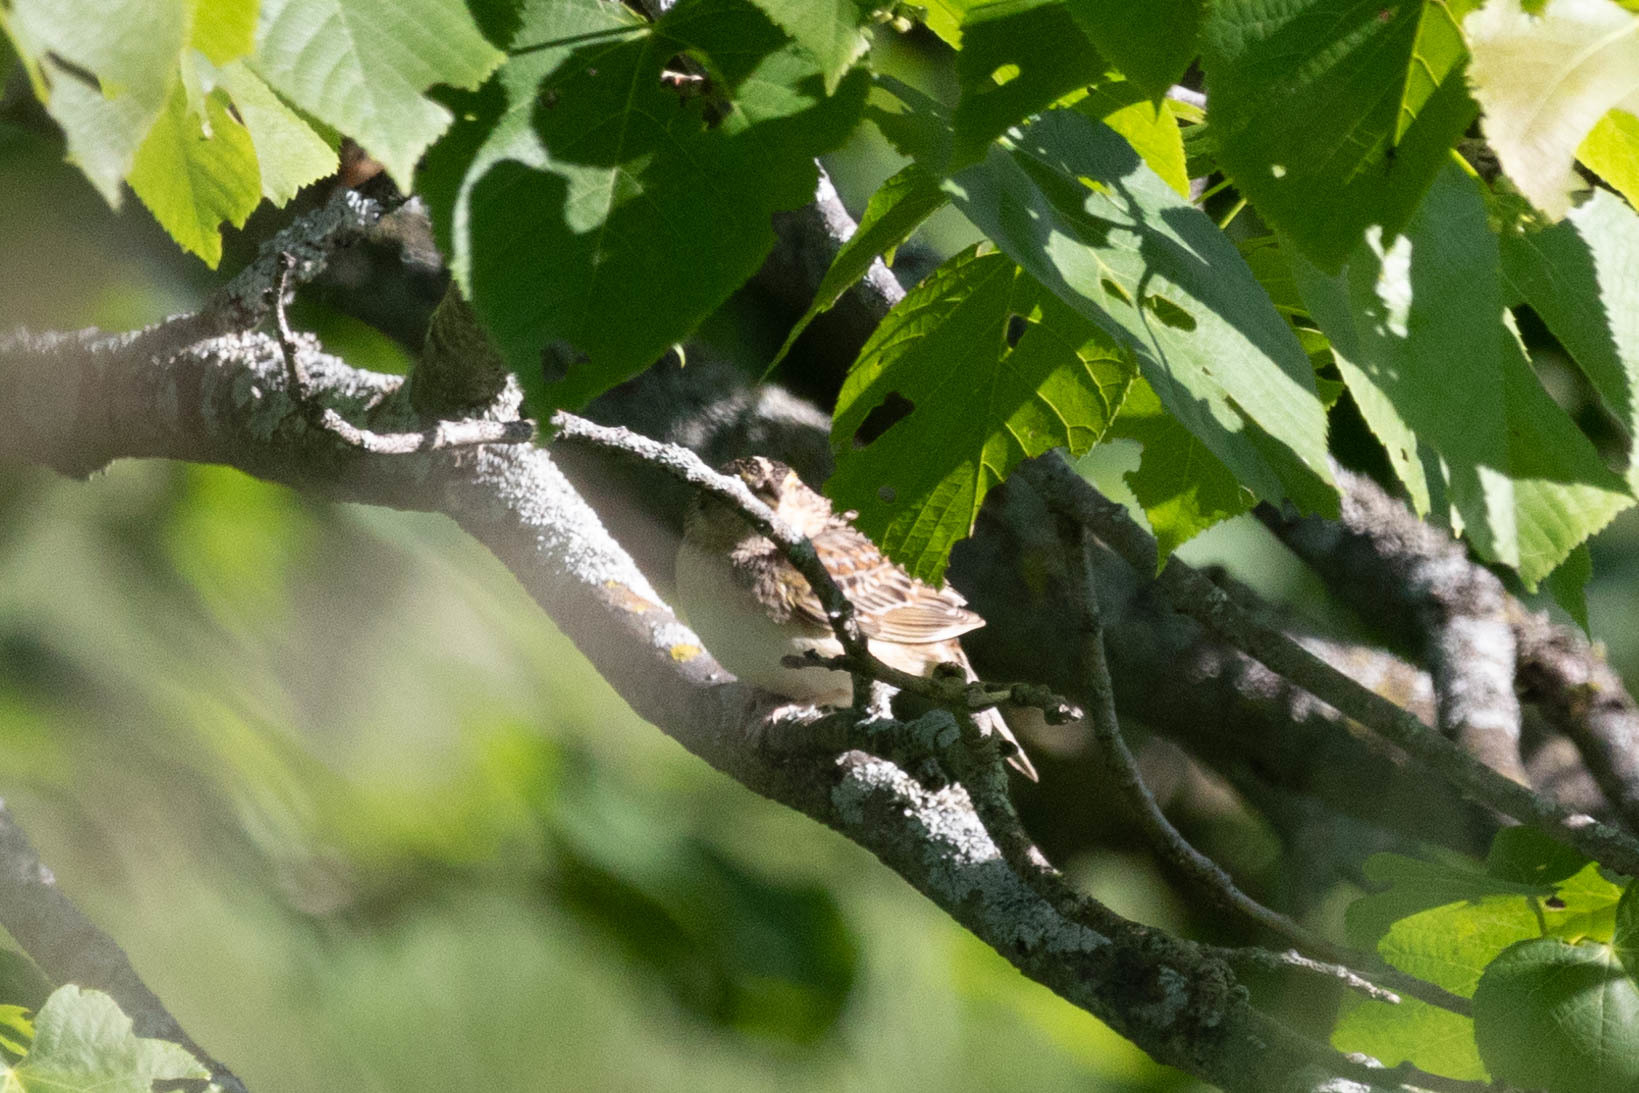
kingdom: Animalia
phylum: Chordata
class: Aves
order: Passeriformes
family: Passerellidae
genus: Ammodramus
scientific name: Ammodramus savannarum
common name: Grasshopper sparrow
